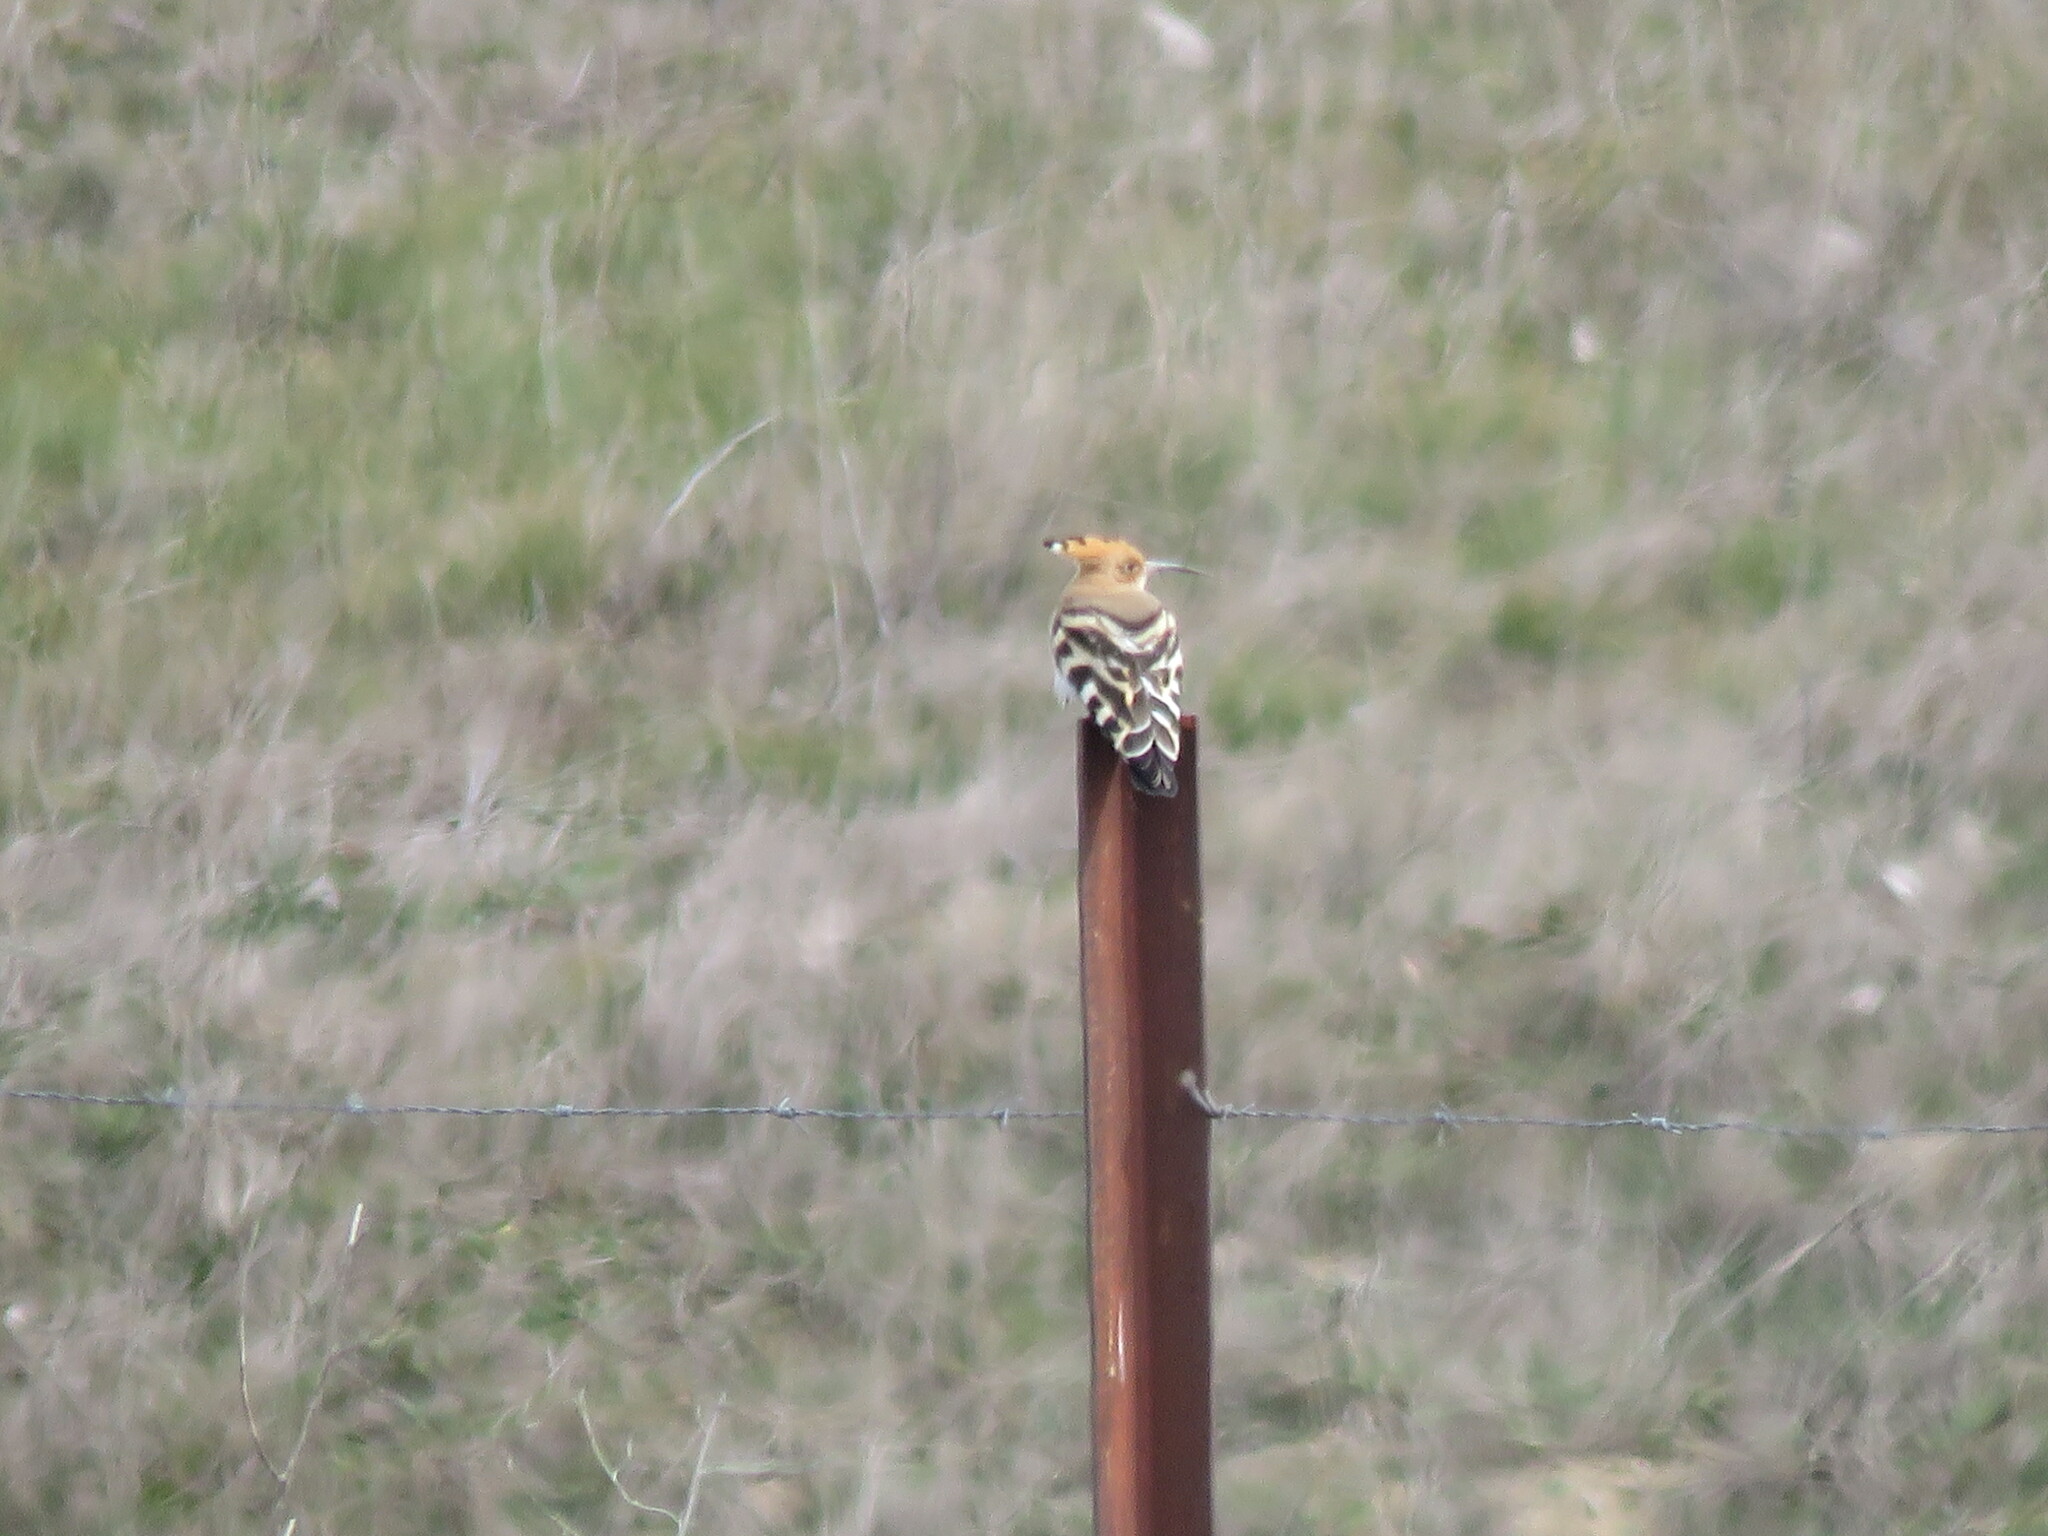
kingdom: Animalia
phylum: Chordata
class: Aves
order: Bucerotiformes
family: Upupidae
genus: Upupa
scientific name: Upupa epops
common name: Eurasian hoopoe
